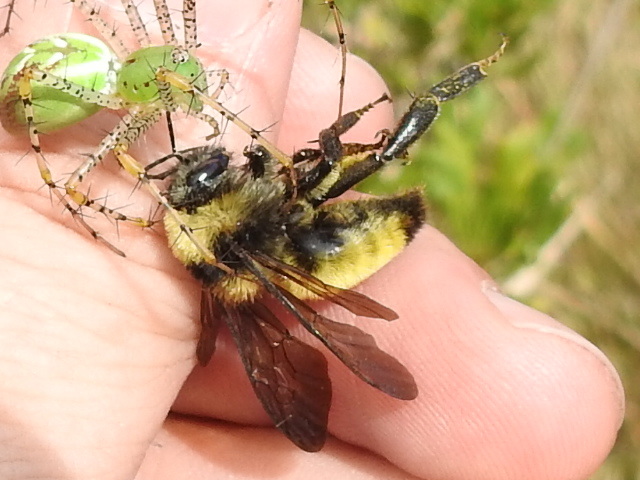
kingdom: Animalia
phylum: Arthropoda
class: Insecta
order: Hymenoptera
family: Apidae
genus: Bombus
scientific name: Bombus pensylvanicus
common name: Bumble bee
